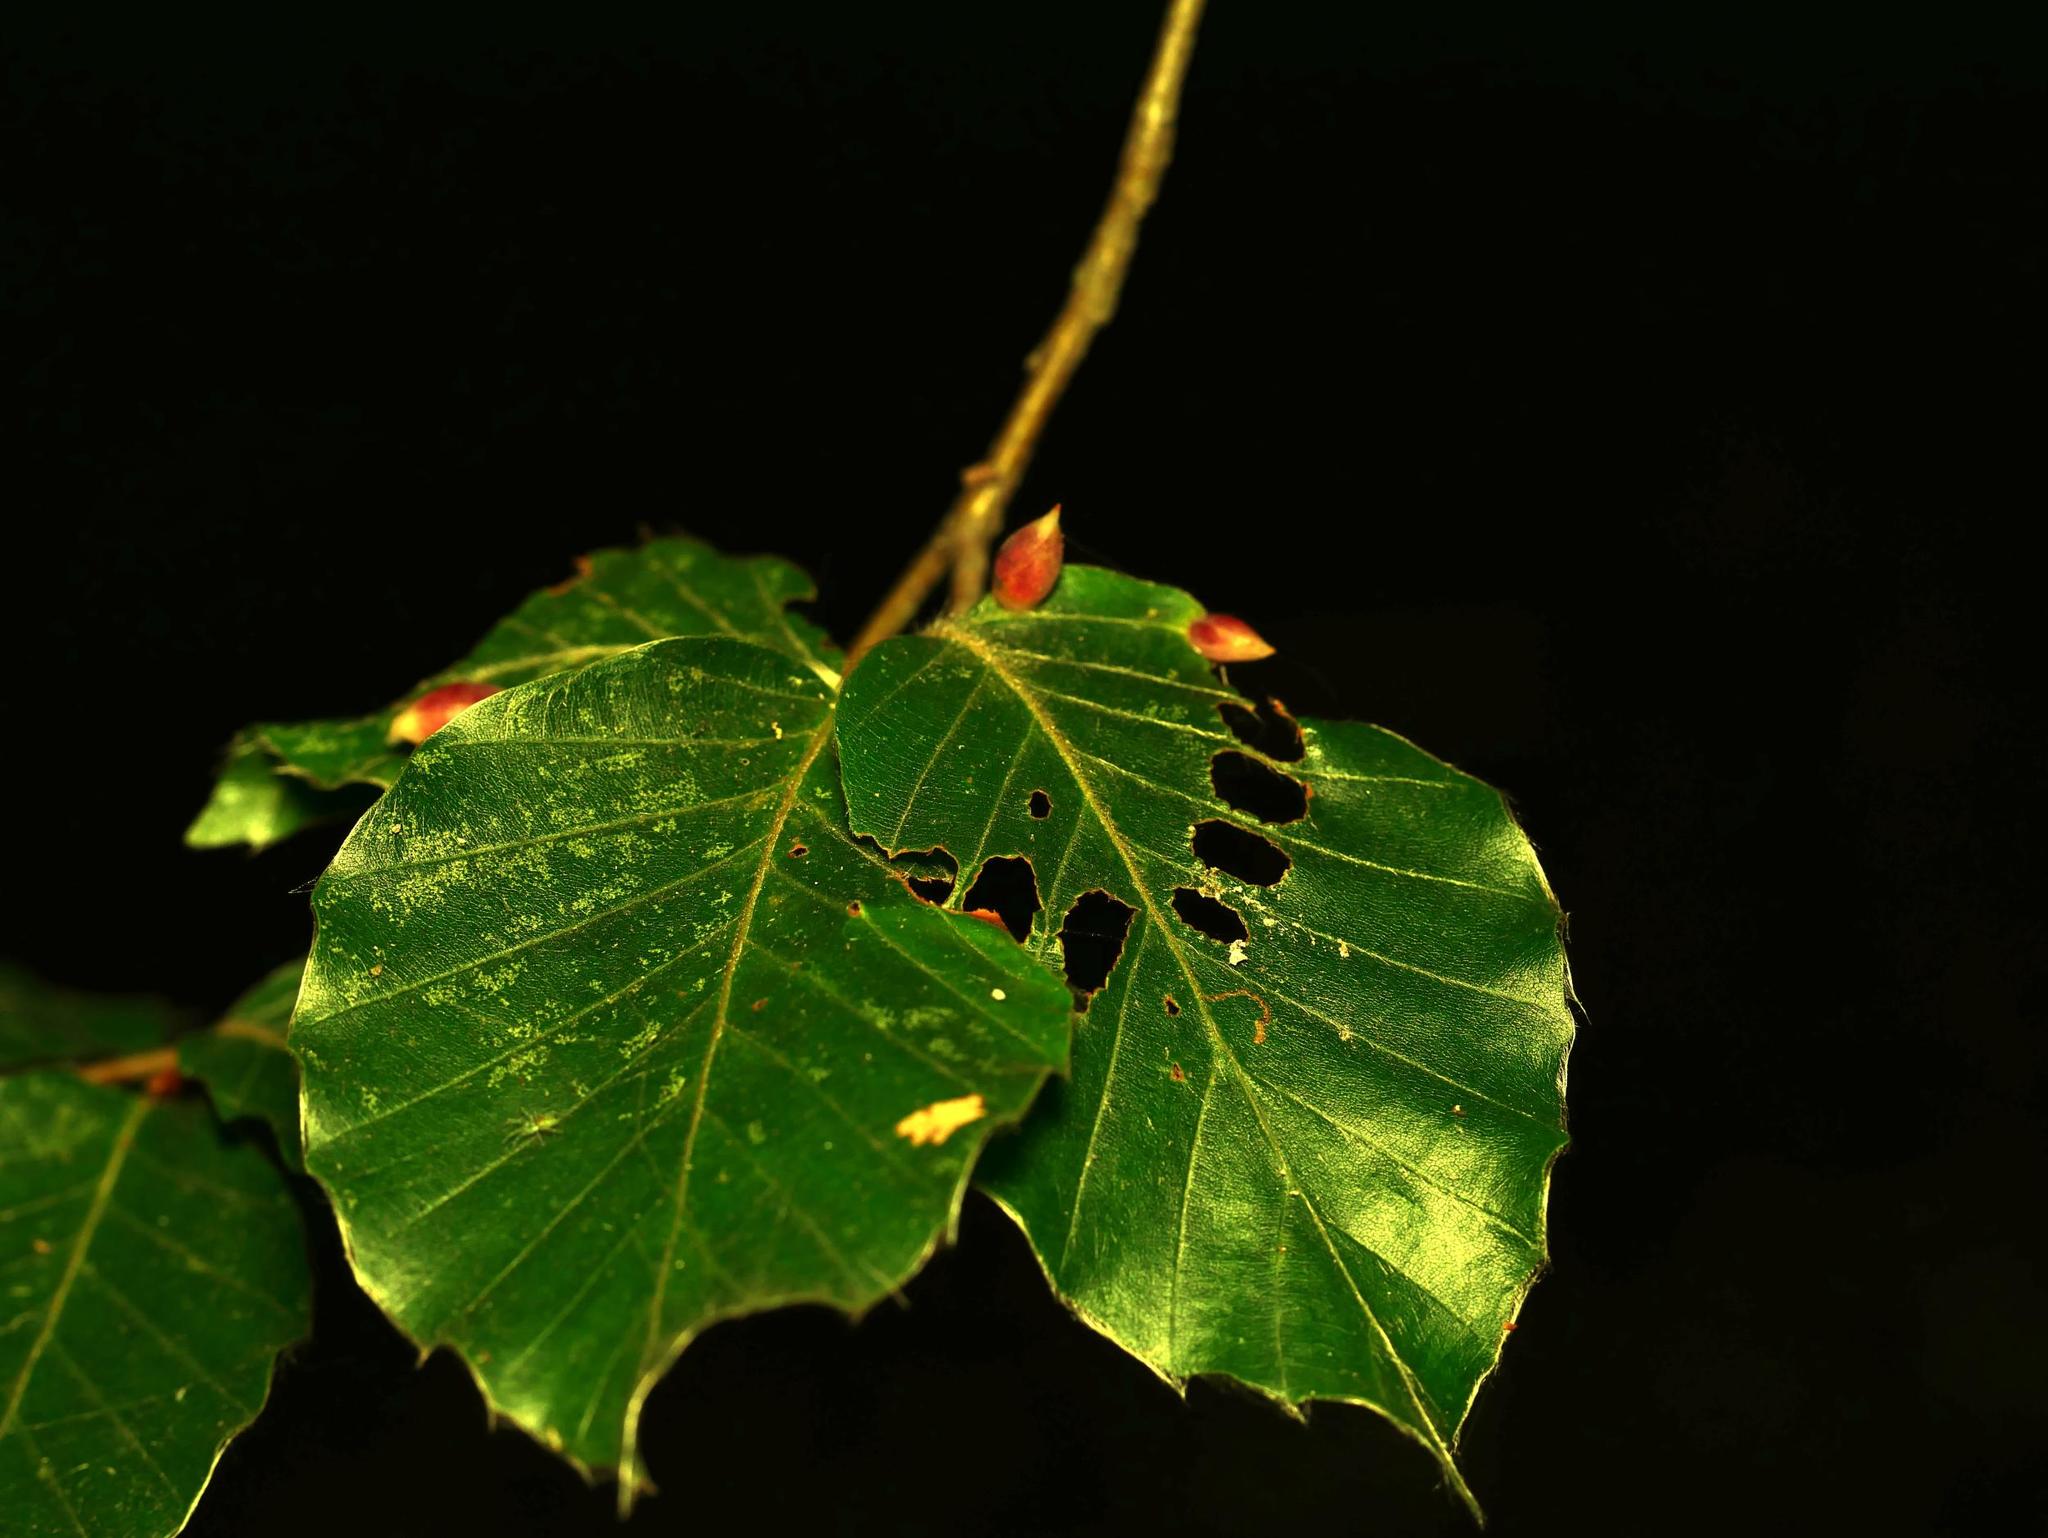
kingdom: Plantae
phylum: Tracheophyta
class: Magnoliopsida
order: Fagales
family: Fagaceae
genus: Fagus
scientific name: Fagus sylvatica
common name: Beech
